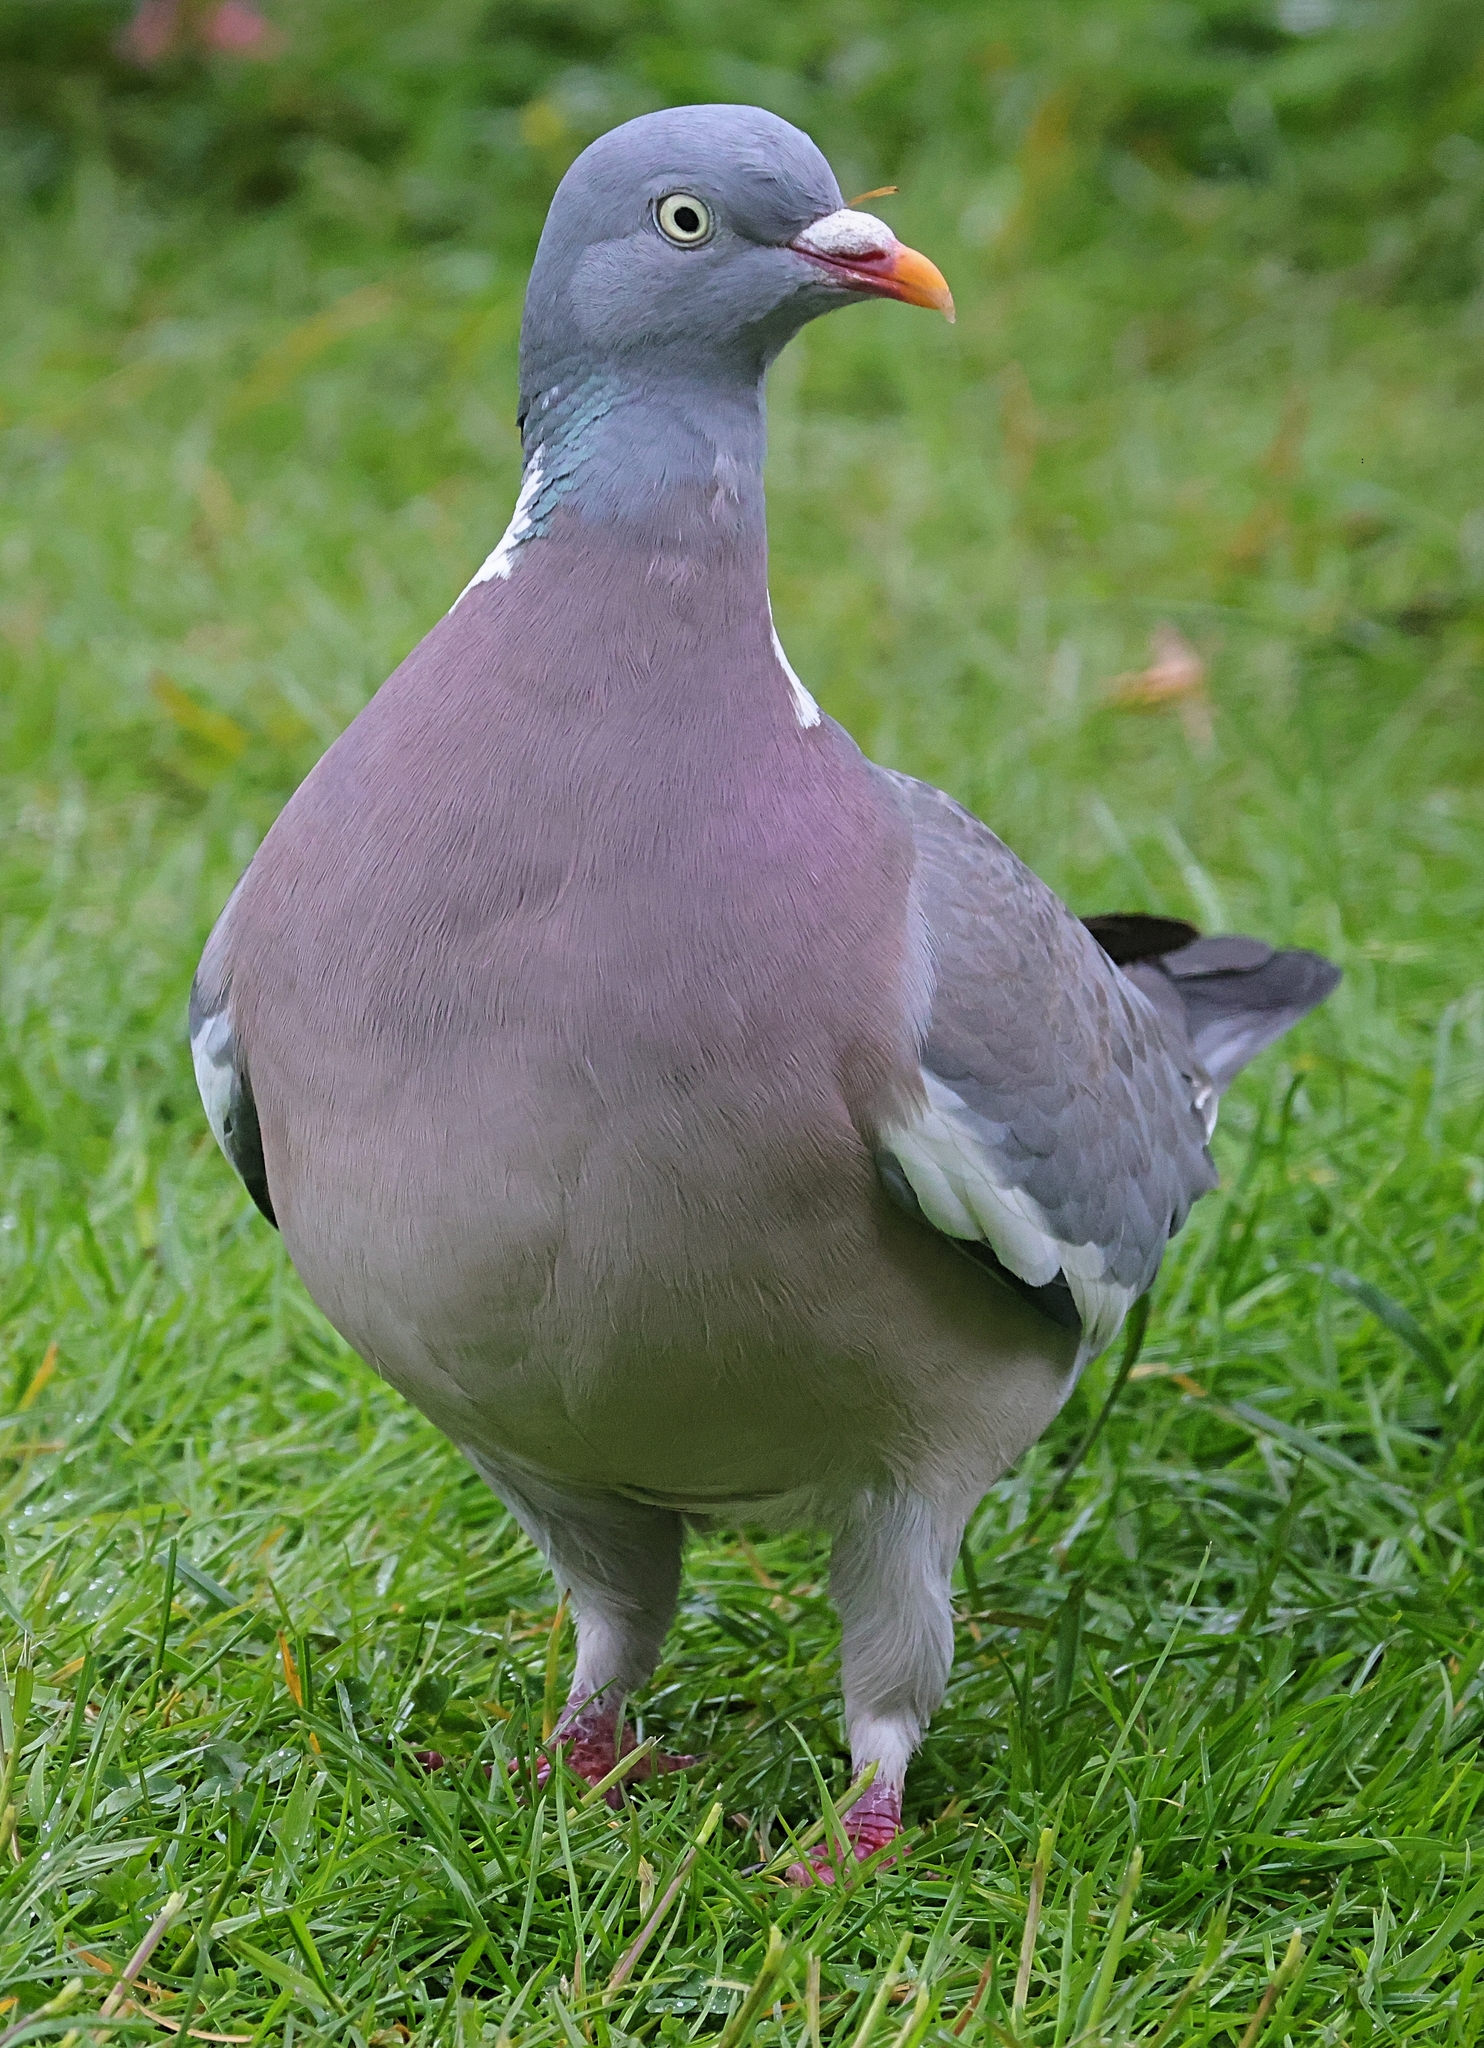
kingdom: Animalia
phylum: Chordata
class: Aves
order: Columbiformes
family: Columbidae
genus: Columba
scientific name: Columba palumbus
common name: Common wood pigeon
